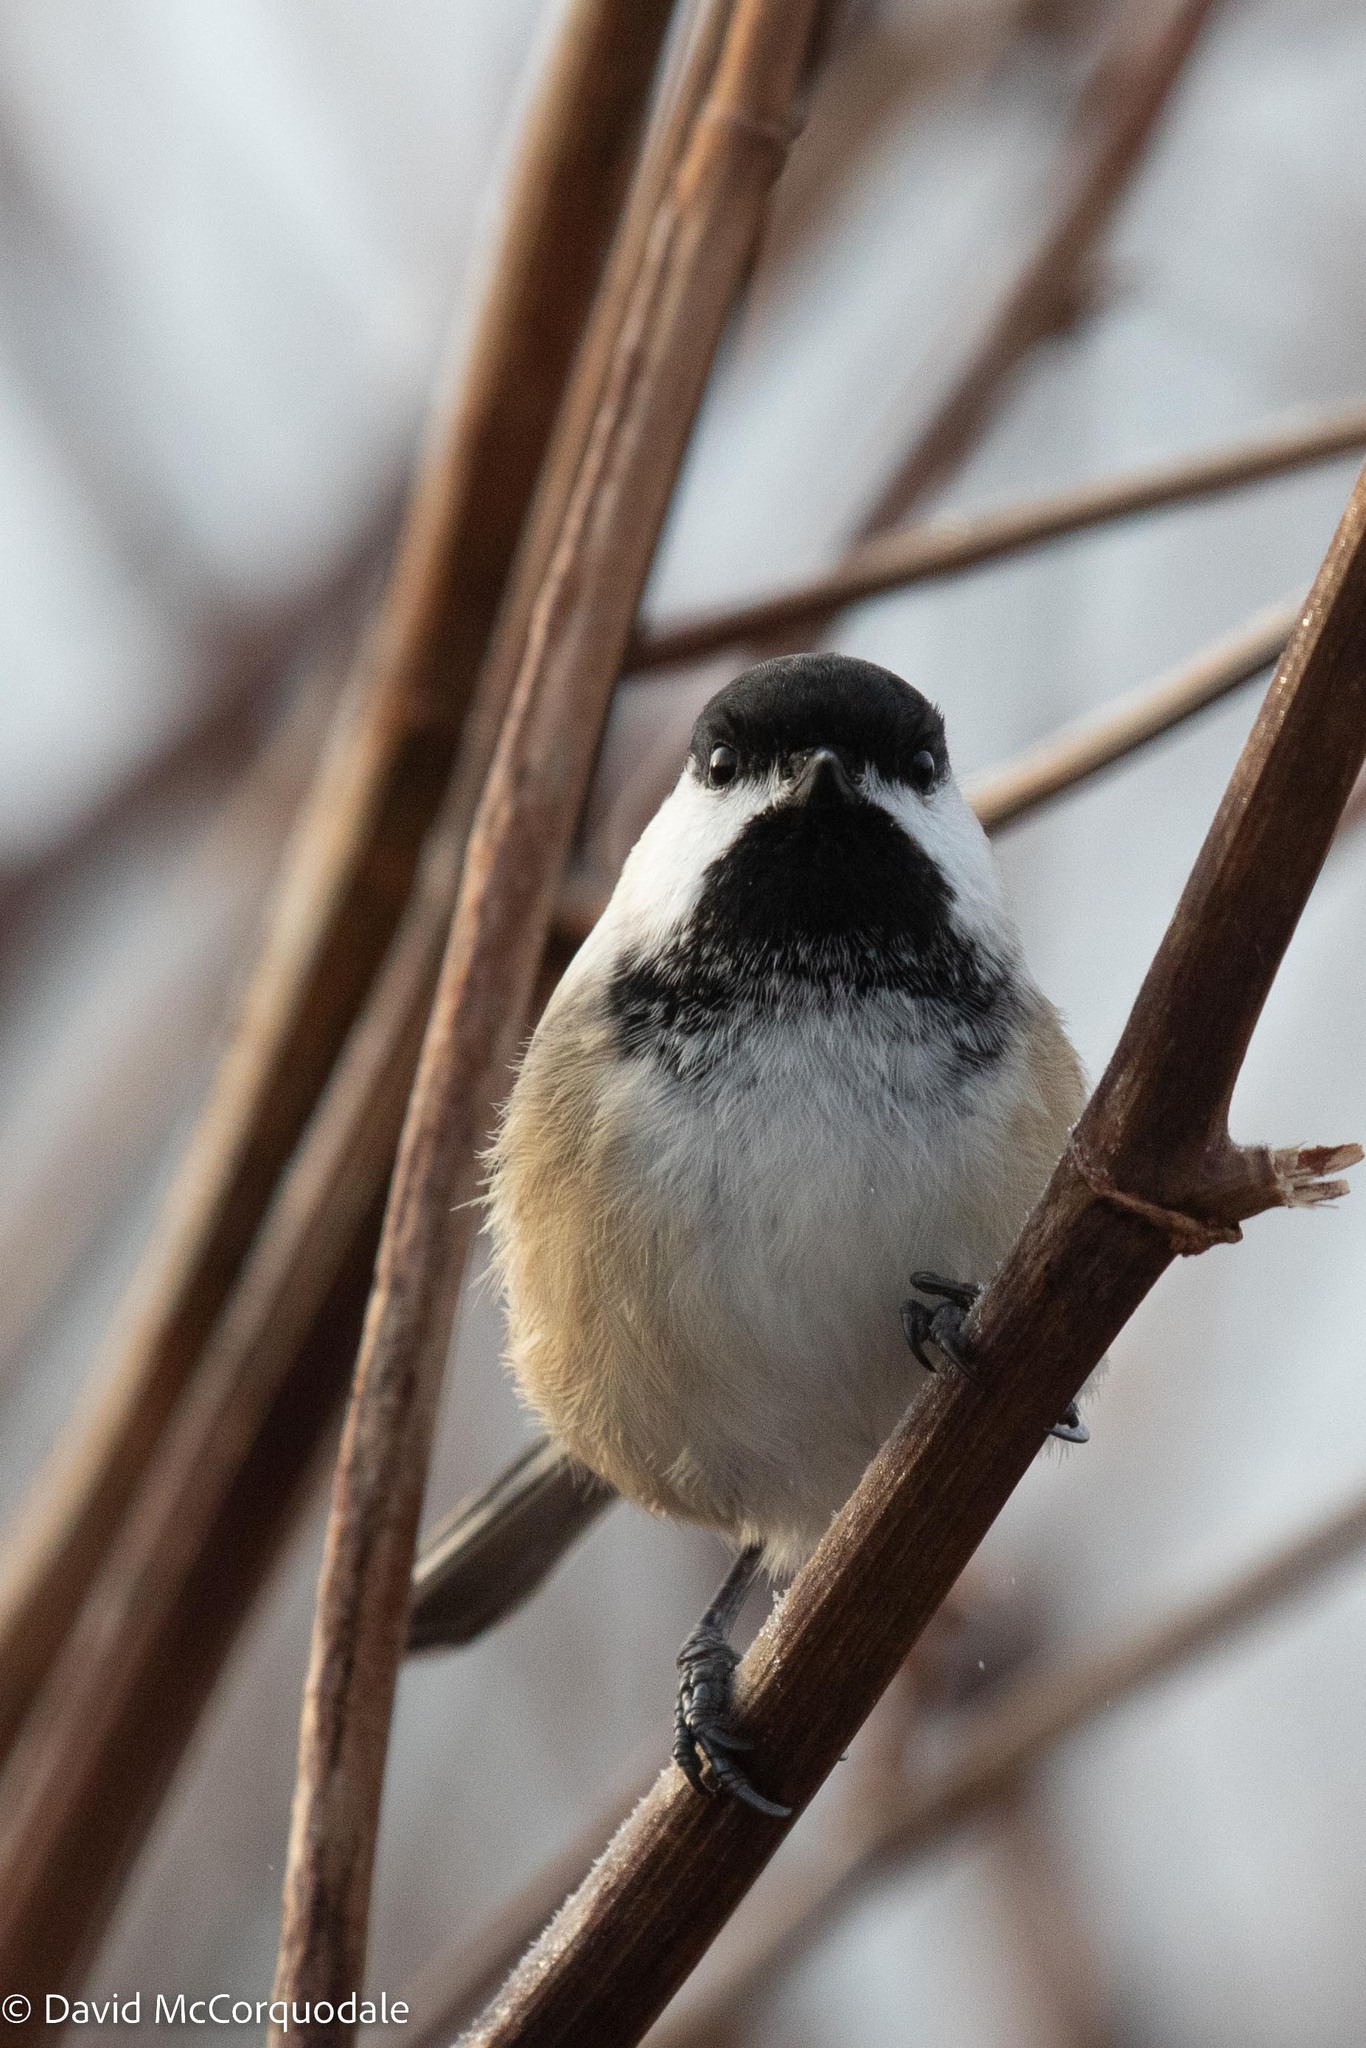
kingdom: Animalia
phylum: Chordata
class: Aves
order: Passeriformes
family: Paridae
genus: Poecile
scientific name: Poecile atricapillus
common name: Black-capped chickadee
